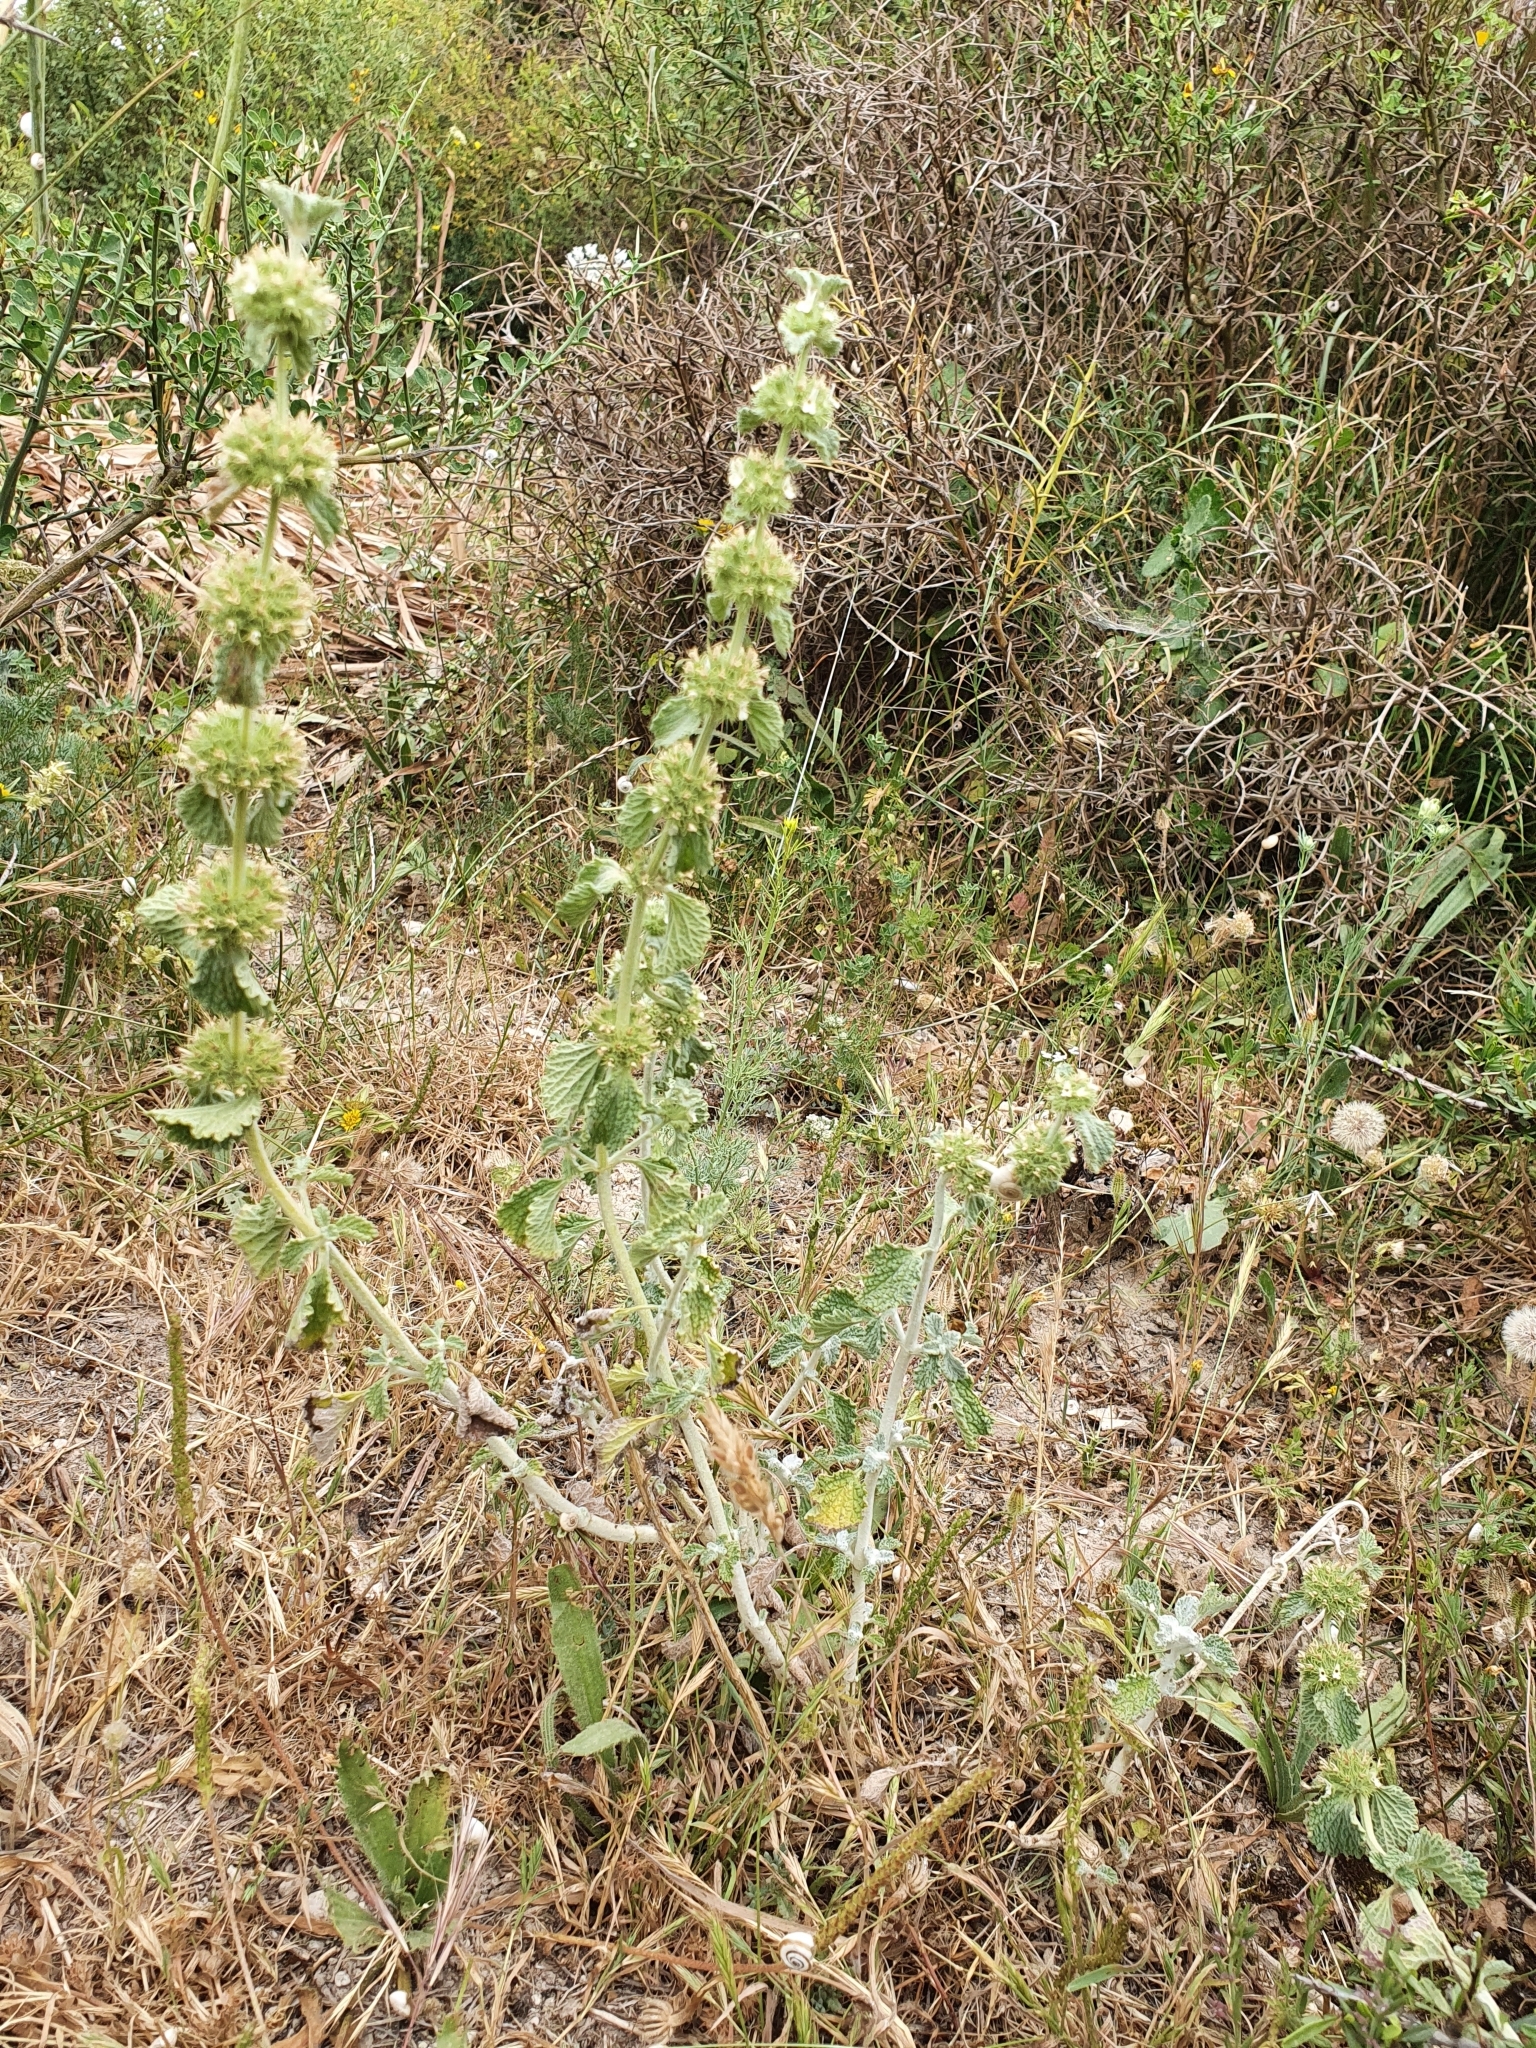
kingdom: Plantae
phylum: Tracheophyta
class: Magnoliopsida
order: Lamiales
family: Lamiaceae
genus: Marrubium
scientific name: Marrubium vulgare
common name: Horehound
